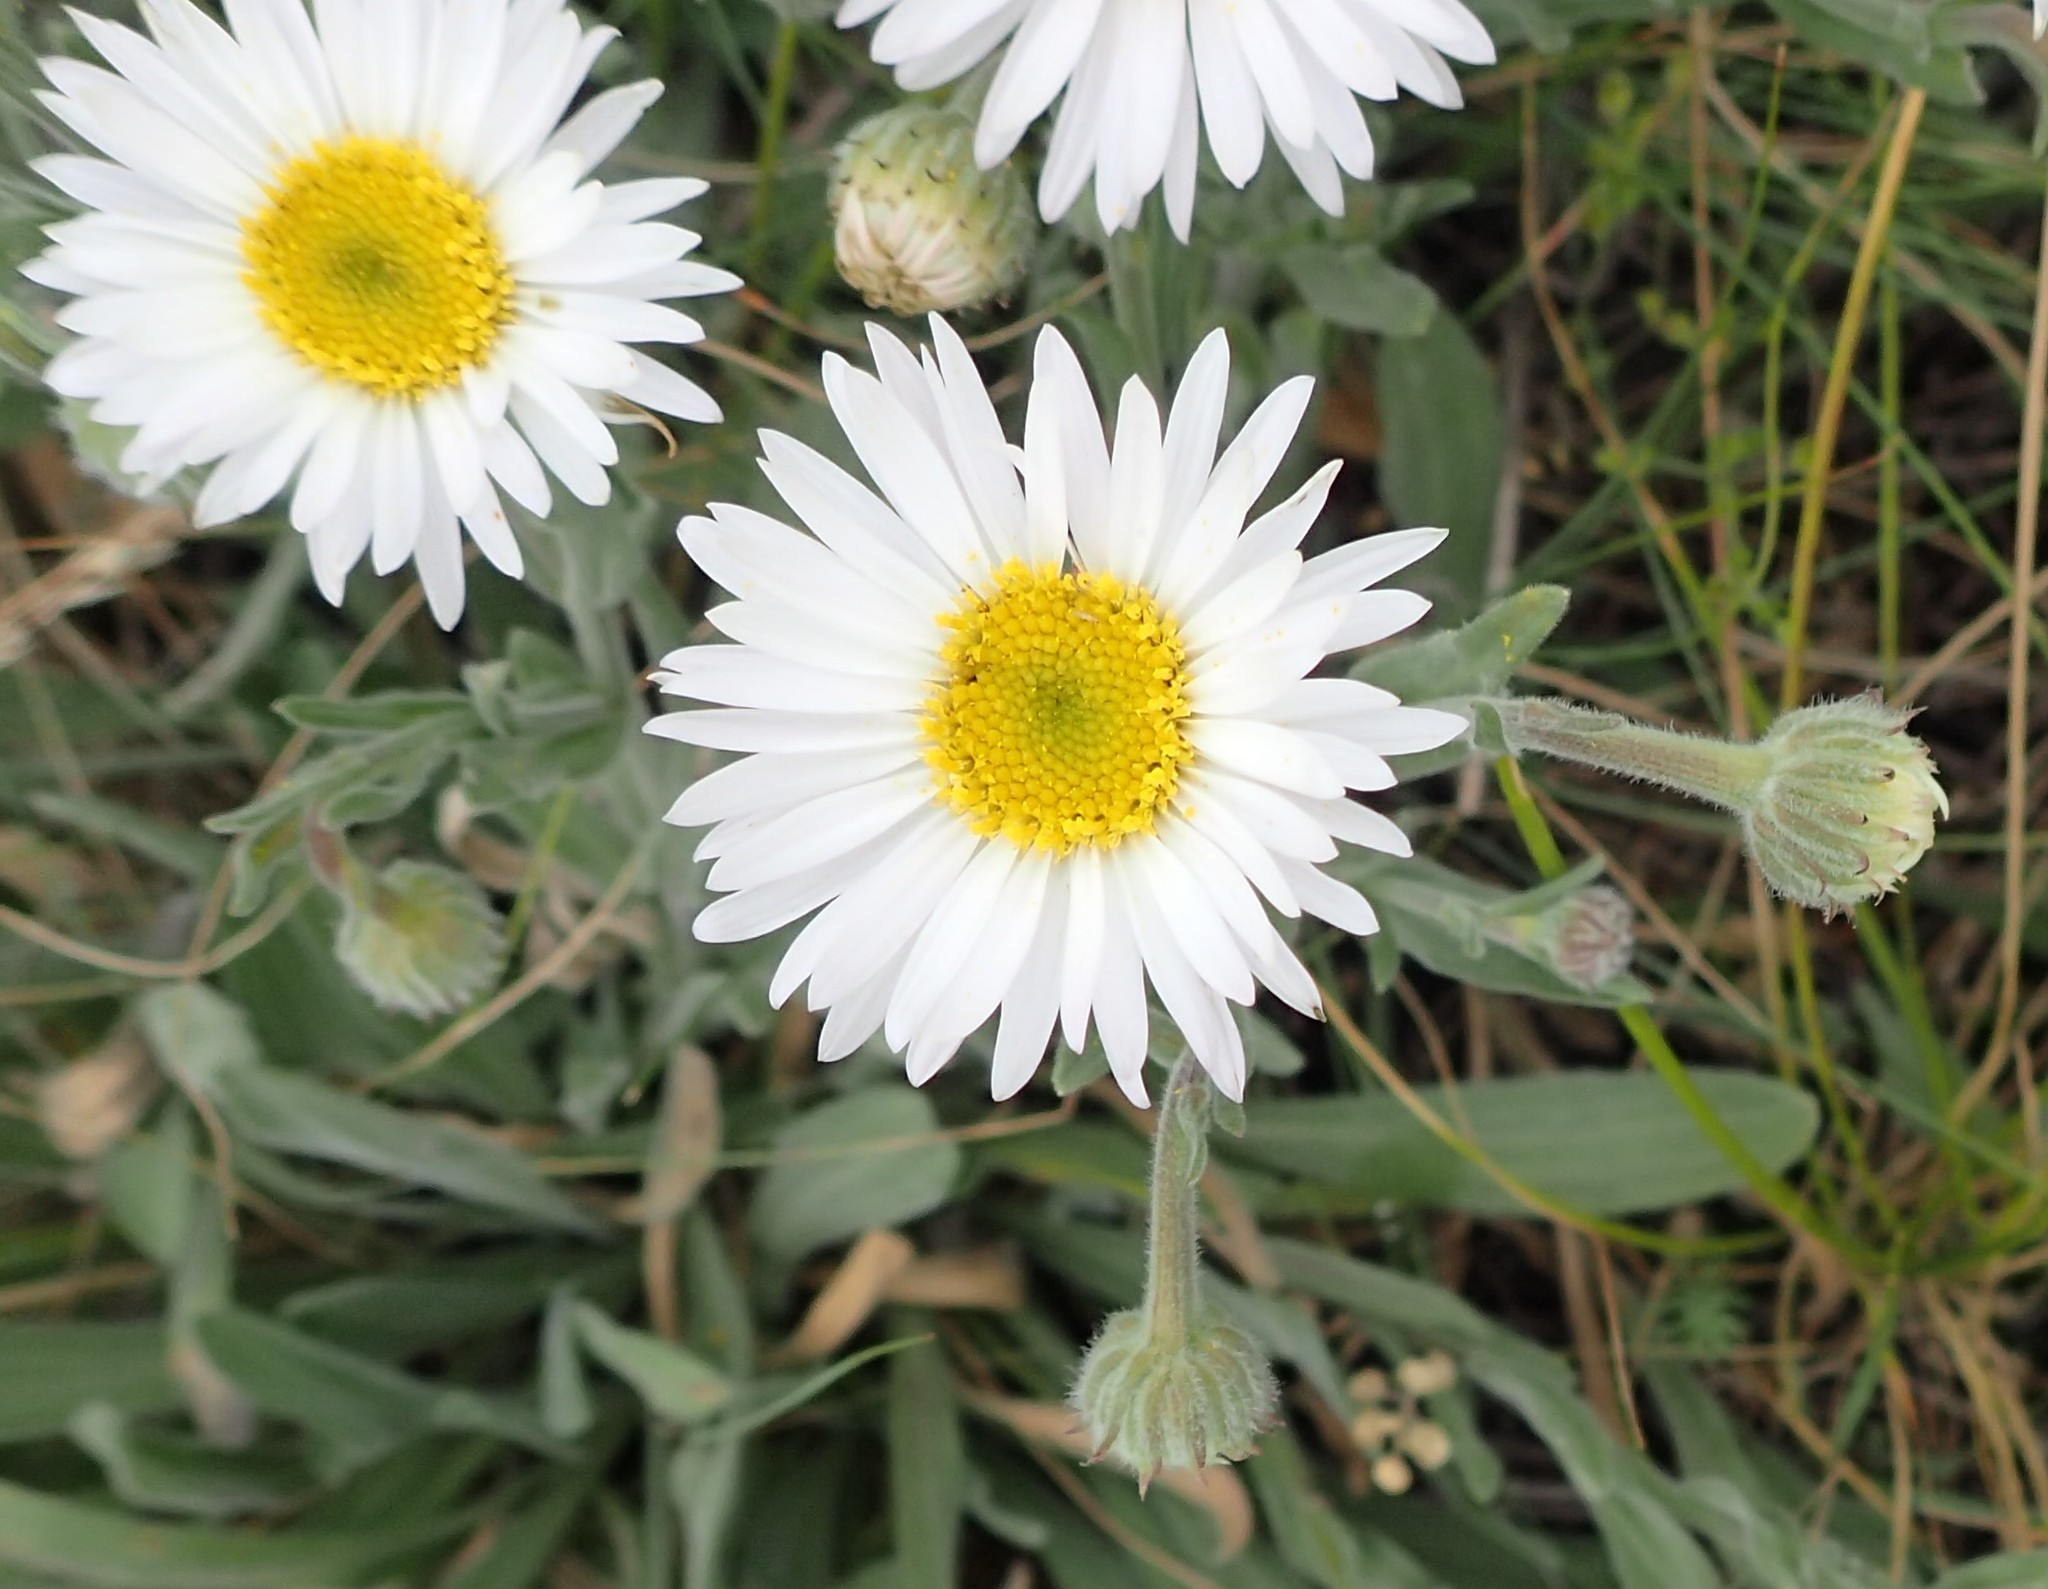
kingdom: Plantae
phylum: Tracheophyta
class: Magnoliopsida
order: Asterales
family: Asteraceae
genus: Erigeron
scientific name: Erigeron caespitosus
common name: Tufted fleabane
